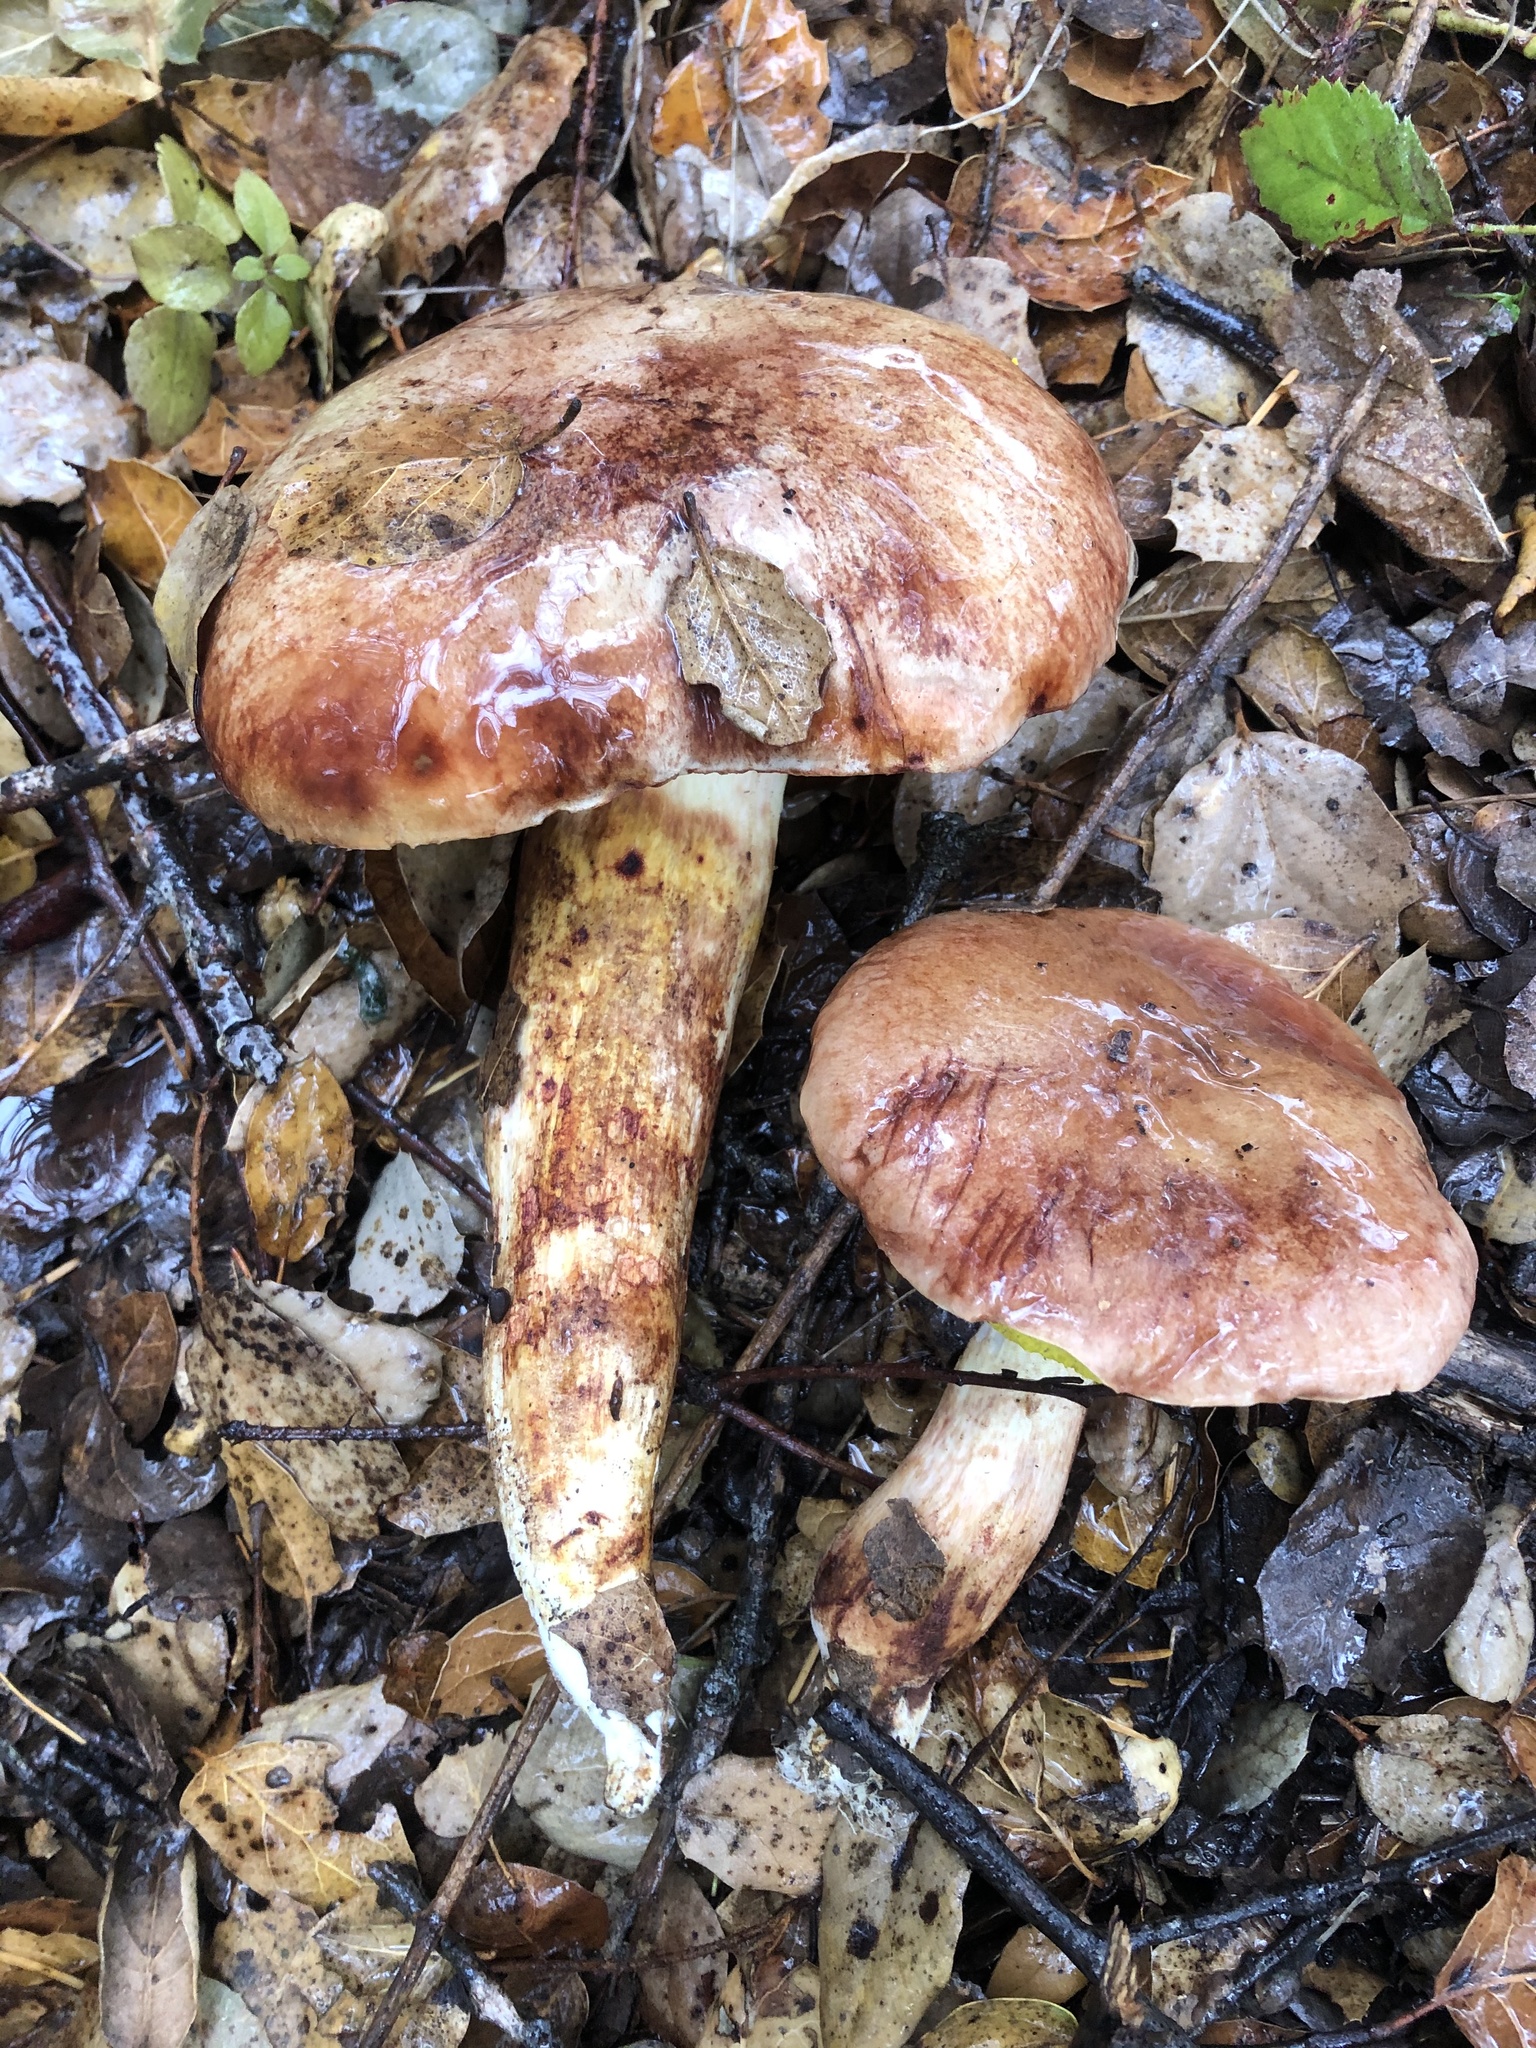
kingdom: Fungi
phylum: Basidiomycota
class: Agaricomycetes
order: Boletales
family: Boletaceae
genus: Aureoboletus
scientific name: Aureoboletus flaviporus
